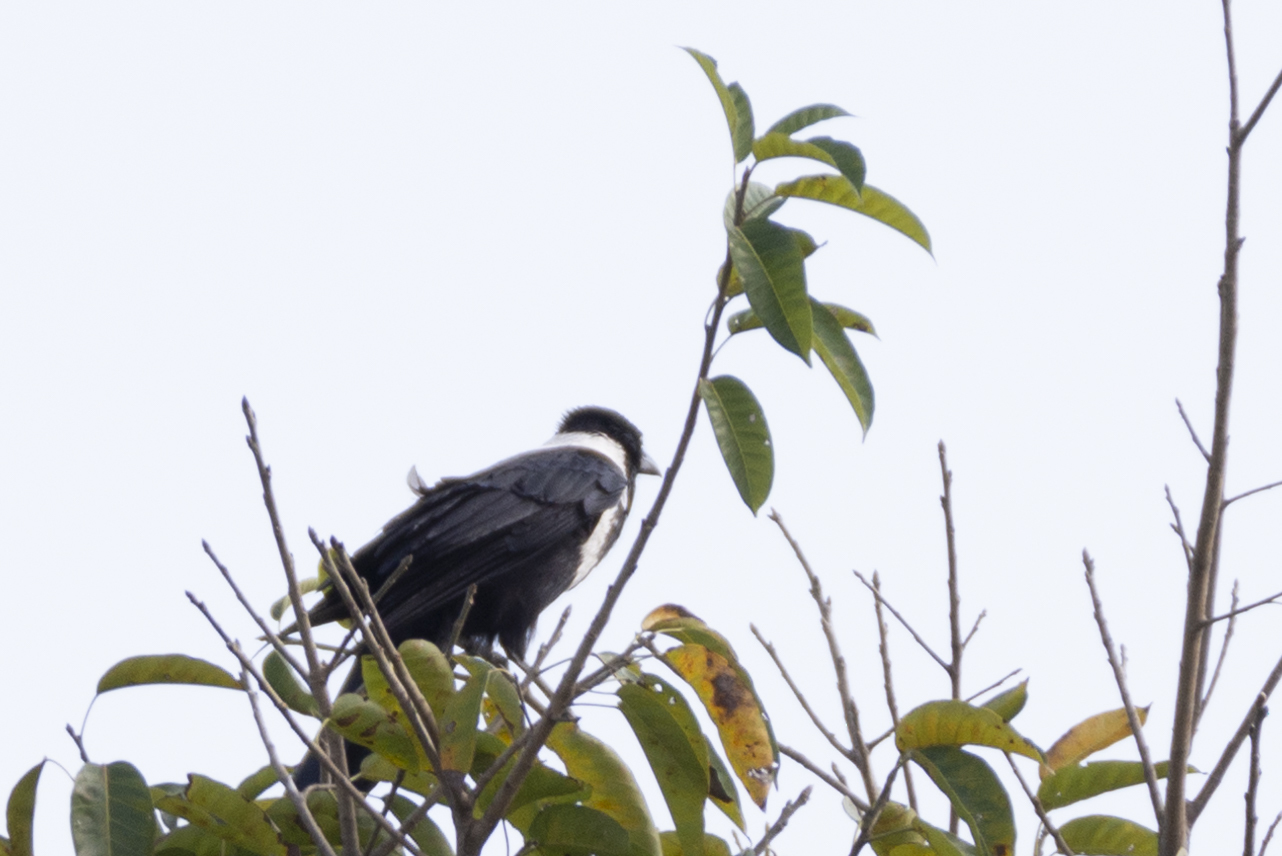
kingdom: Animalia
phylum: Chordata
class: Aves
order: Passeriformes
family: Corvidae
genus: Corvus
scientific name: Corvus pectoralis
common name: Collared crow
